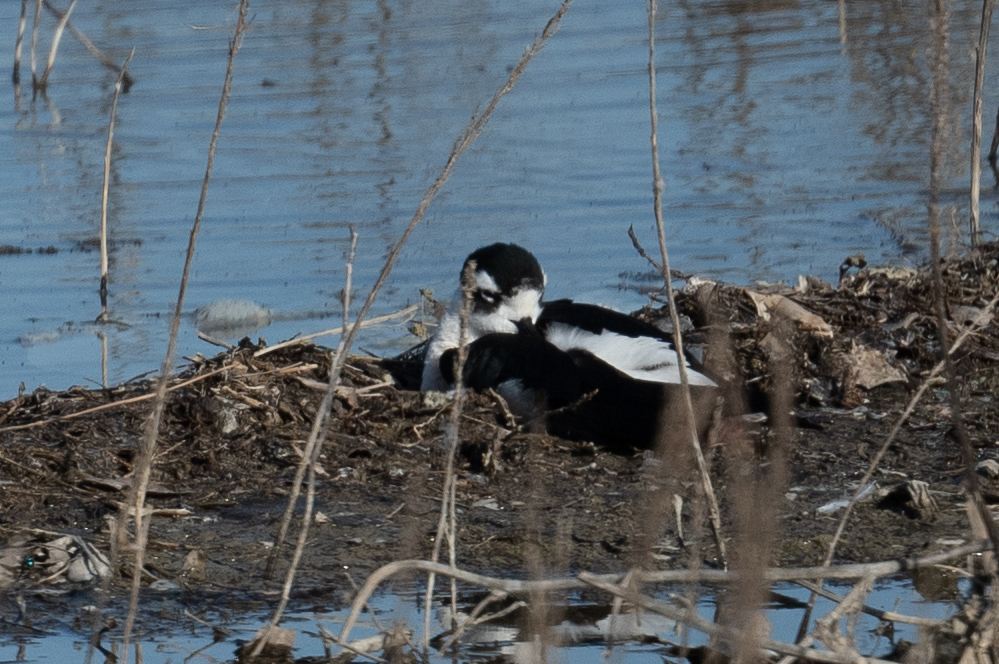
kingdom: Animalia
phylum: Chordata
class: Aves
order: Charadriiformes
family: Recurvirostridae
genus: Himantopus
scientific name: Himantopus mexicanus
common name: Black-necked stilt
